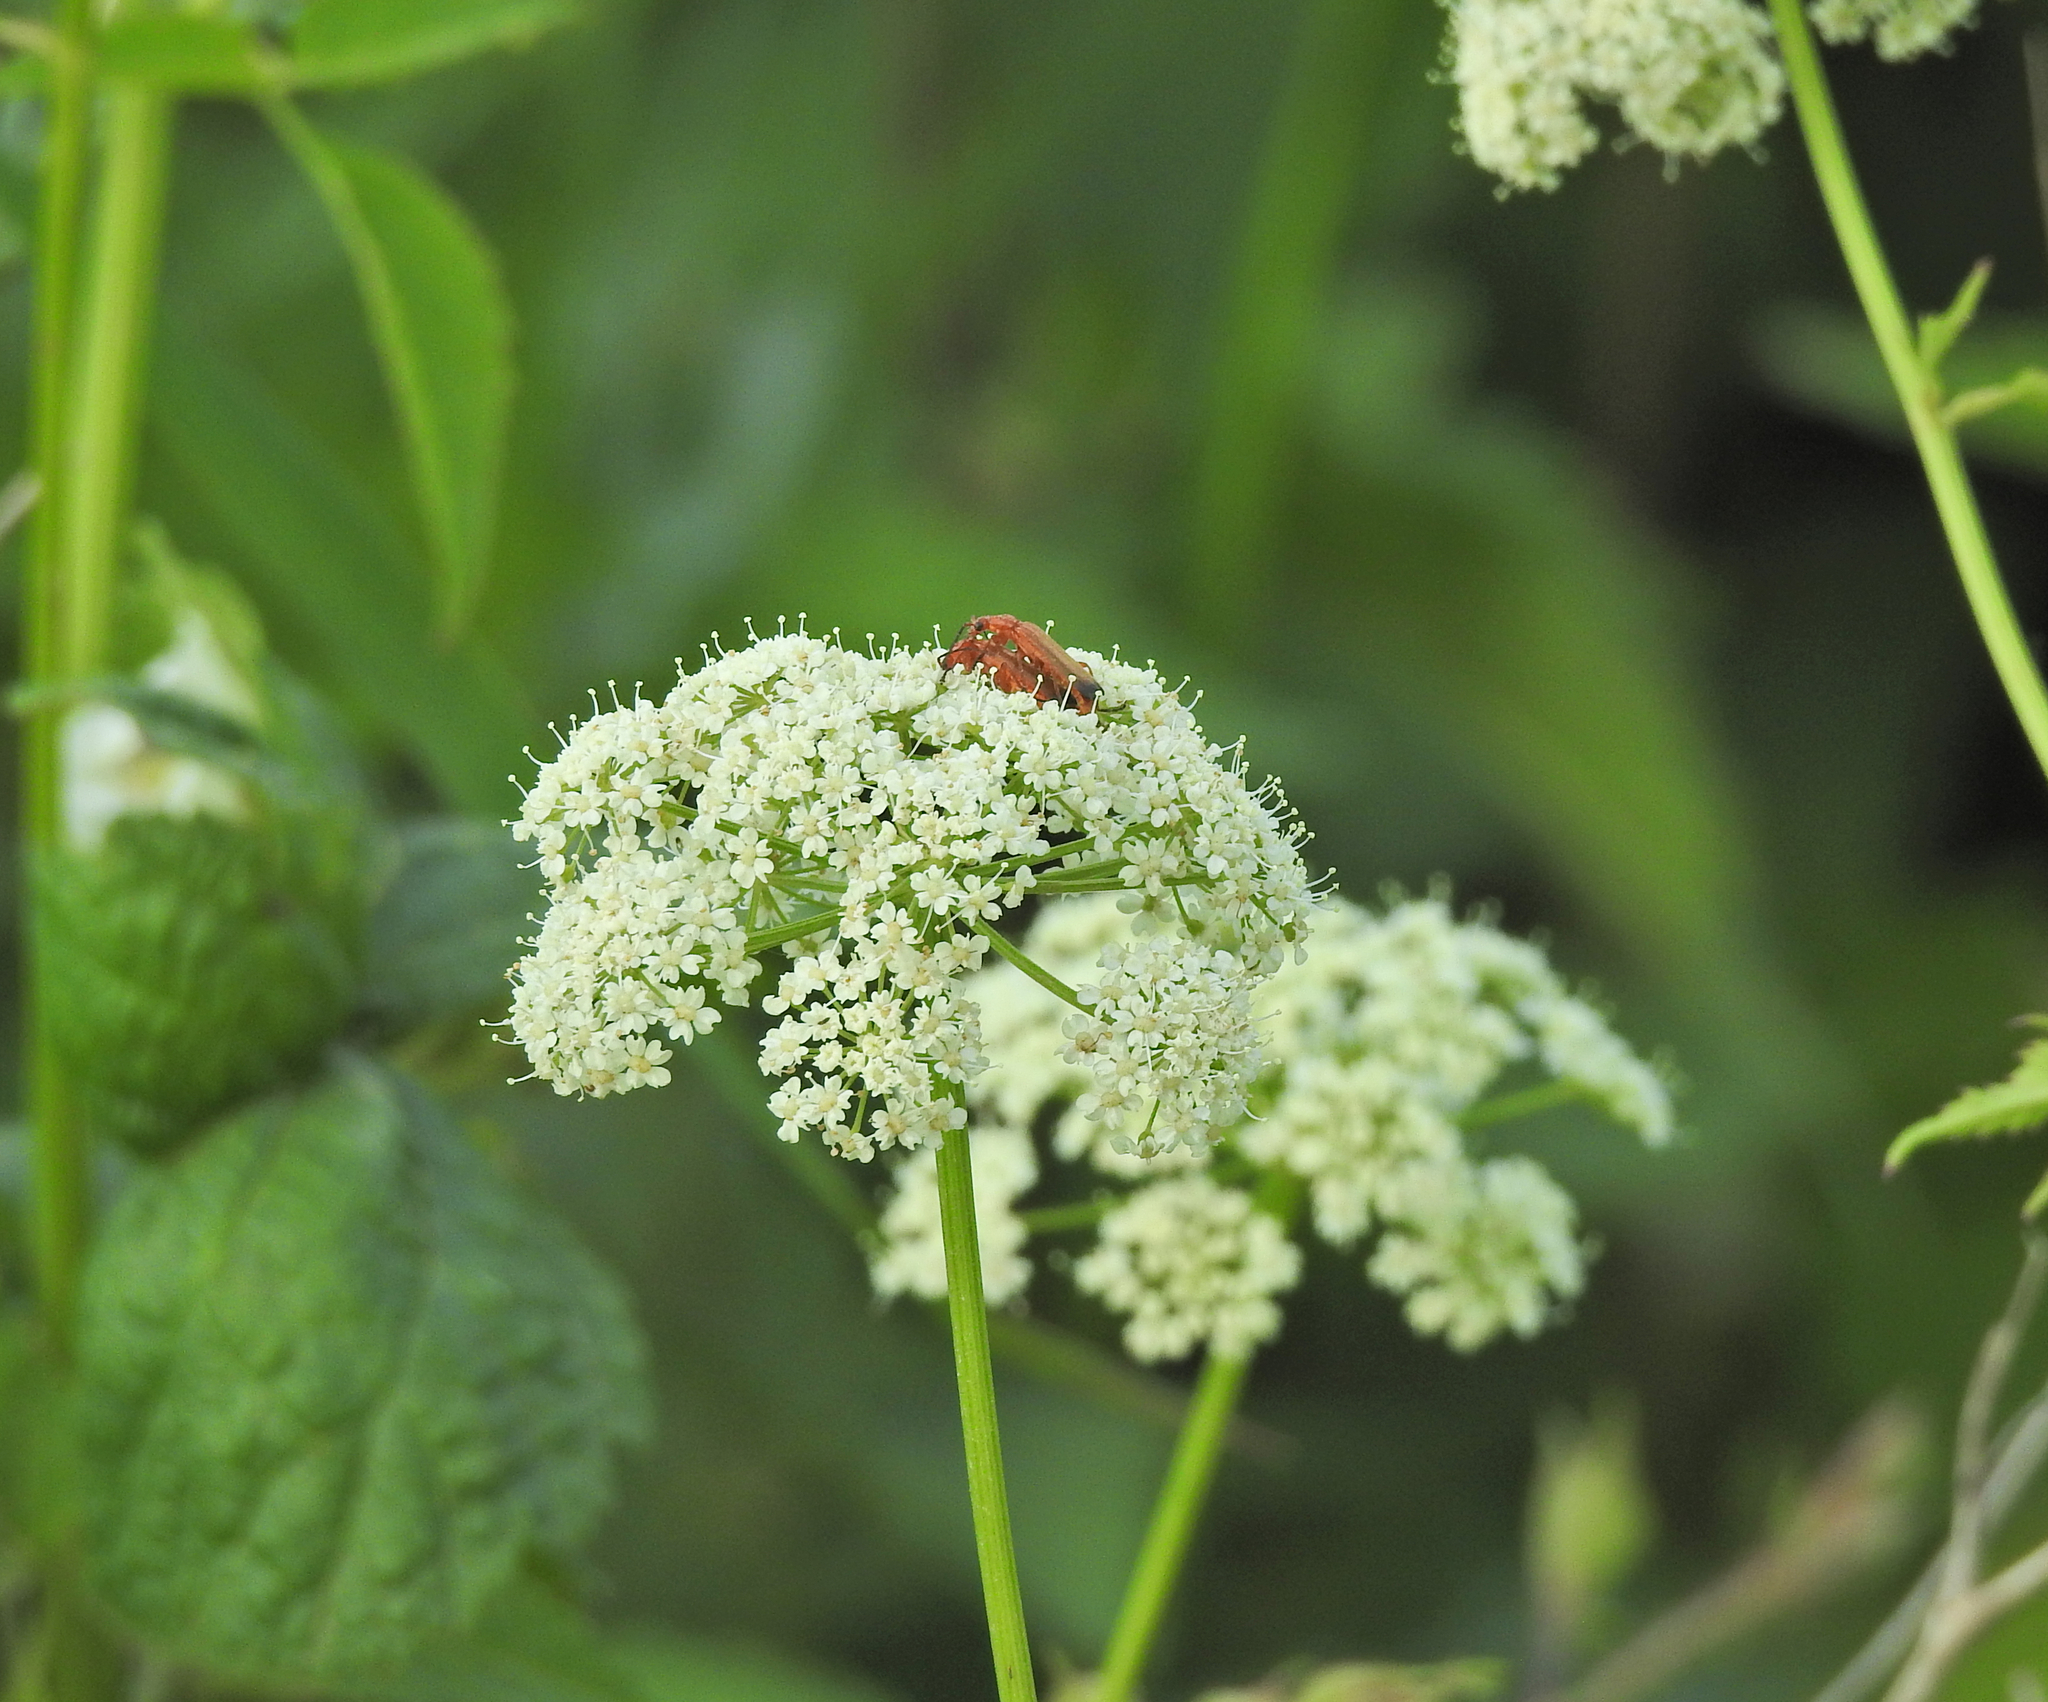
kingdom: Animalia
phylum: Arthropoda
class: Insecta
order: Coleoptera
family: Cantharidae
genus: Rhagonycha
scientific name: Rhagonycha fulva
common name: Common red soldier beetle
